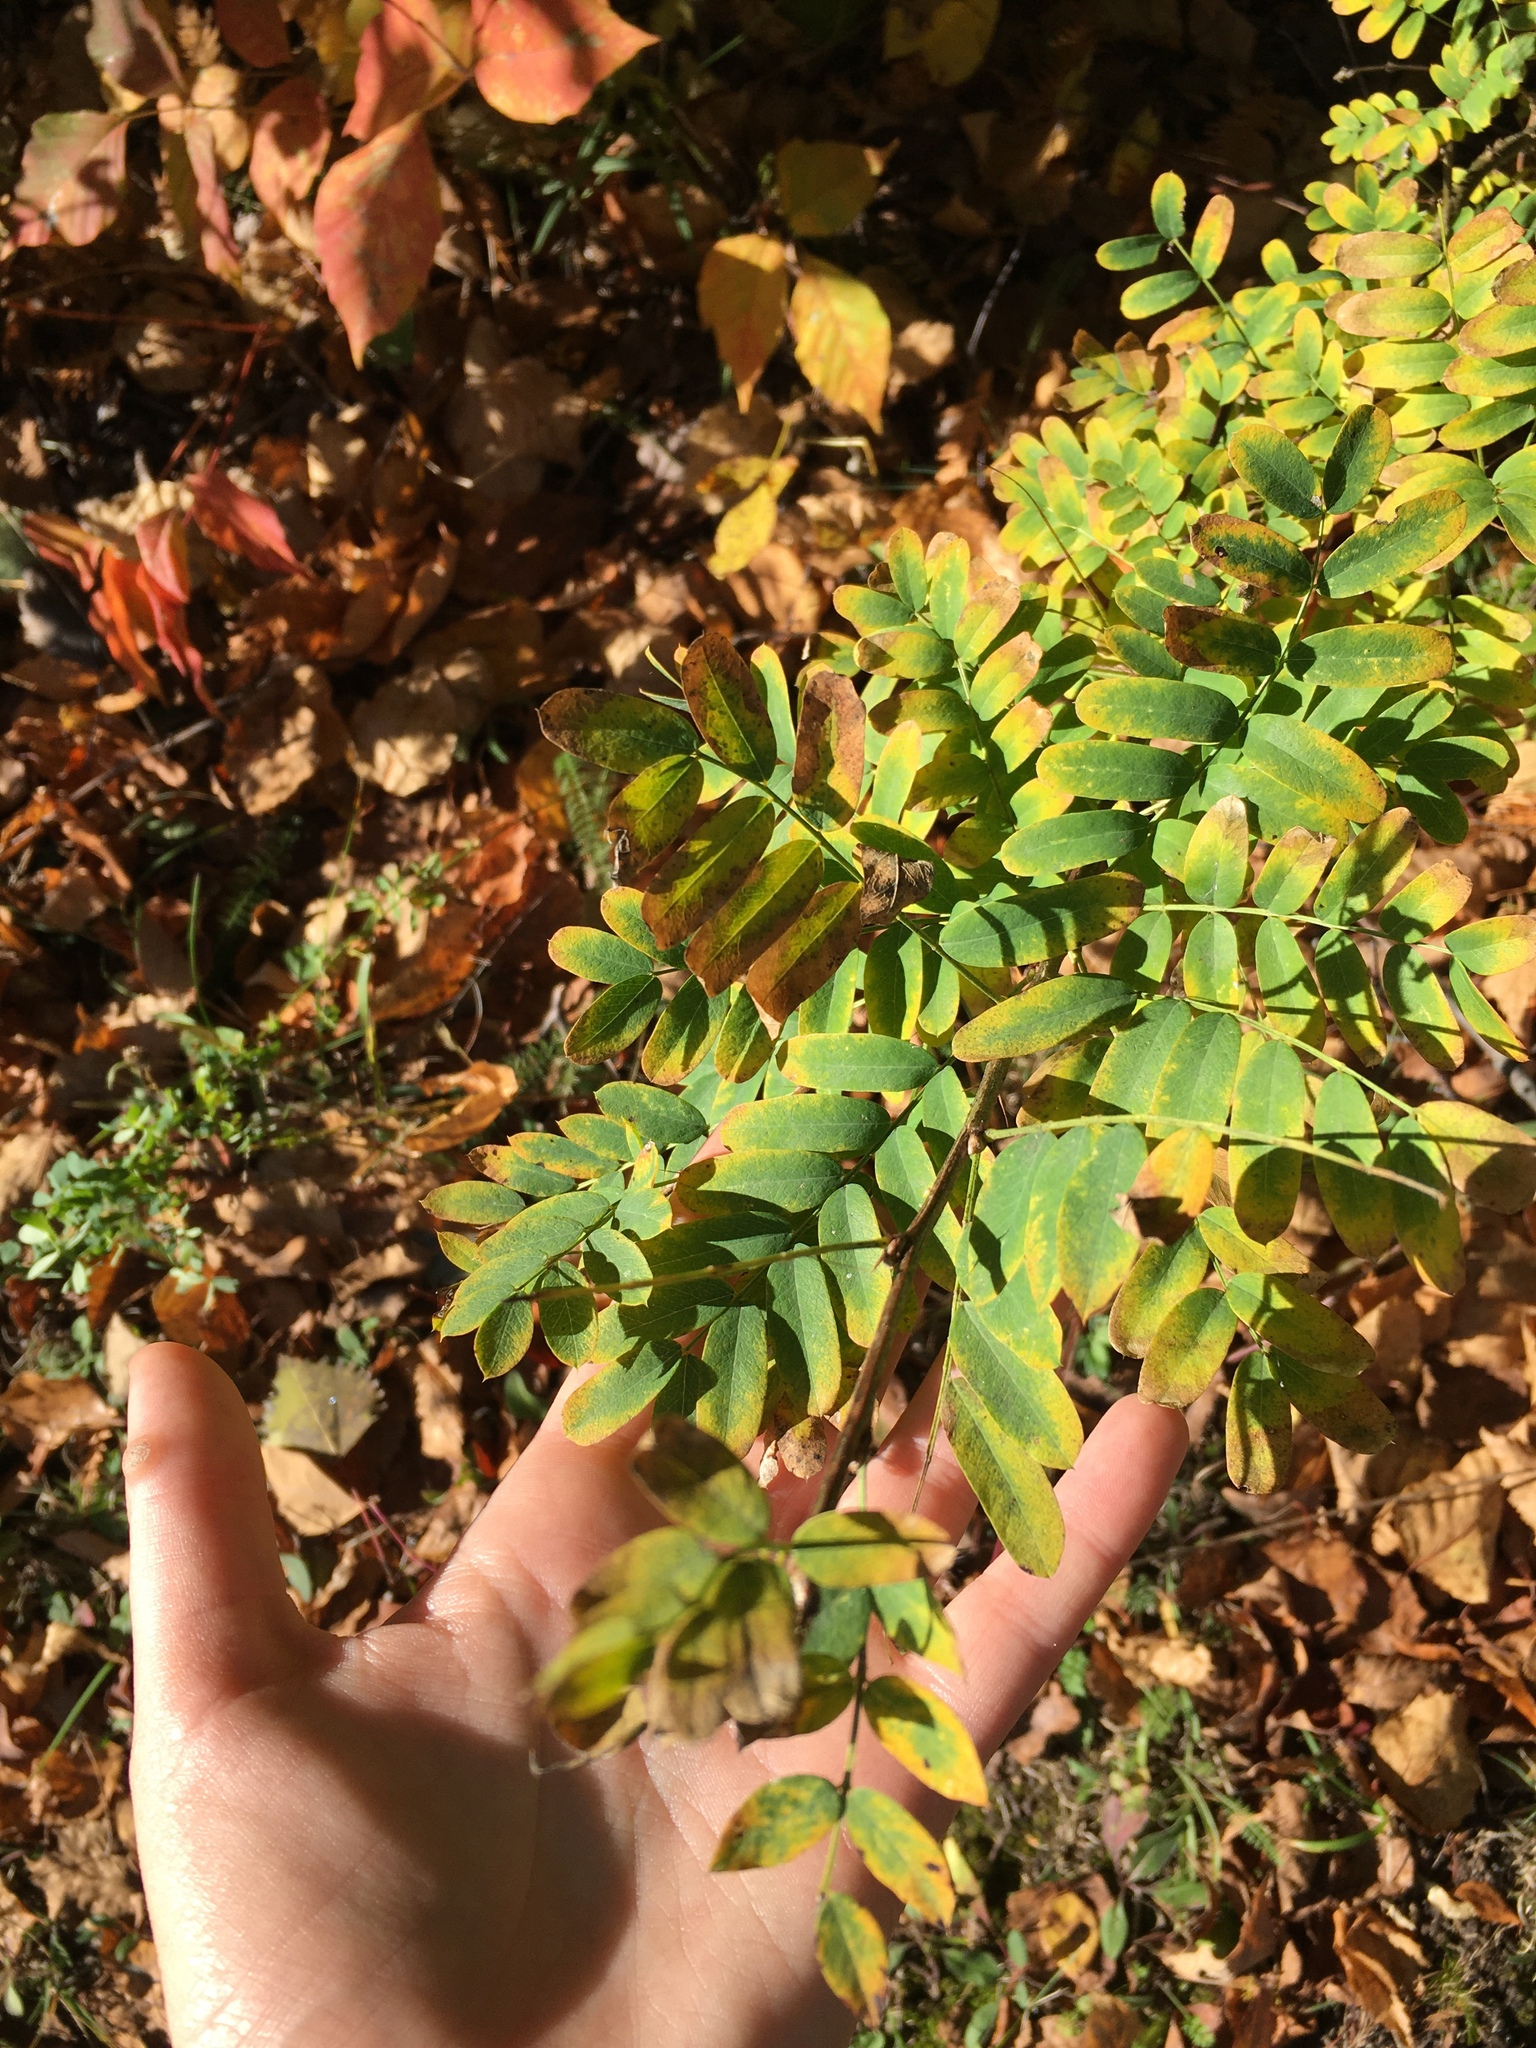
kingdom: Plantae
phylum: Tracheophyta
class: Magnoliopsida
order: Fabales
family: Fabaceae
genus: Caragana
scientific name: Caragana arborescens
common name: Siberian peashrub
